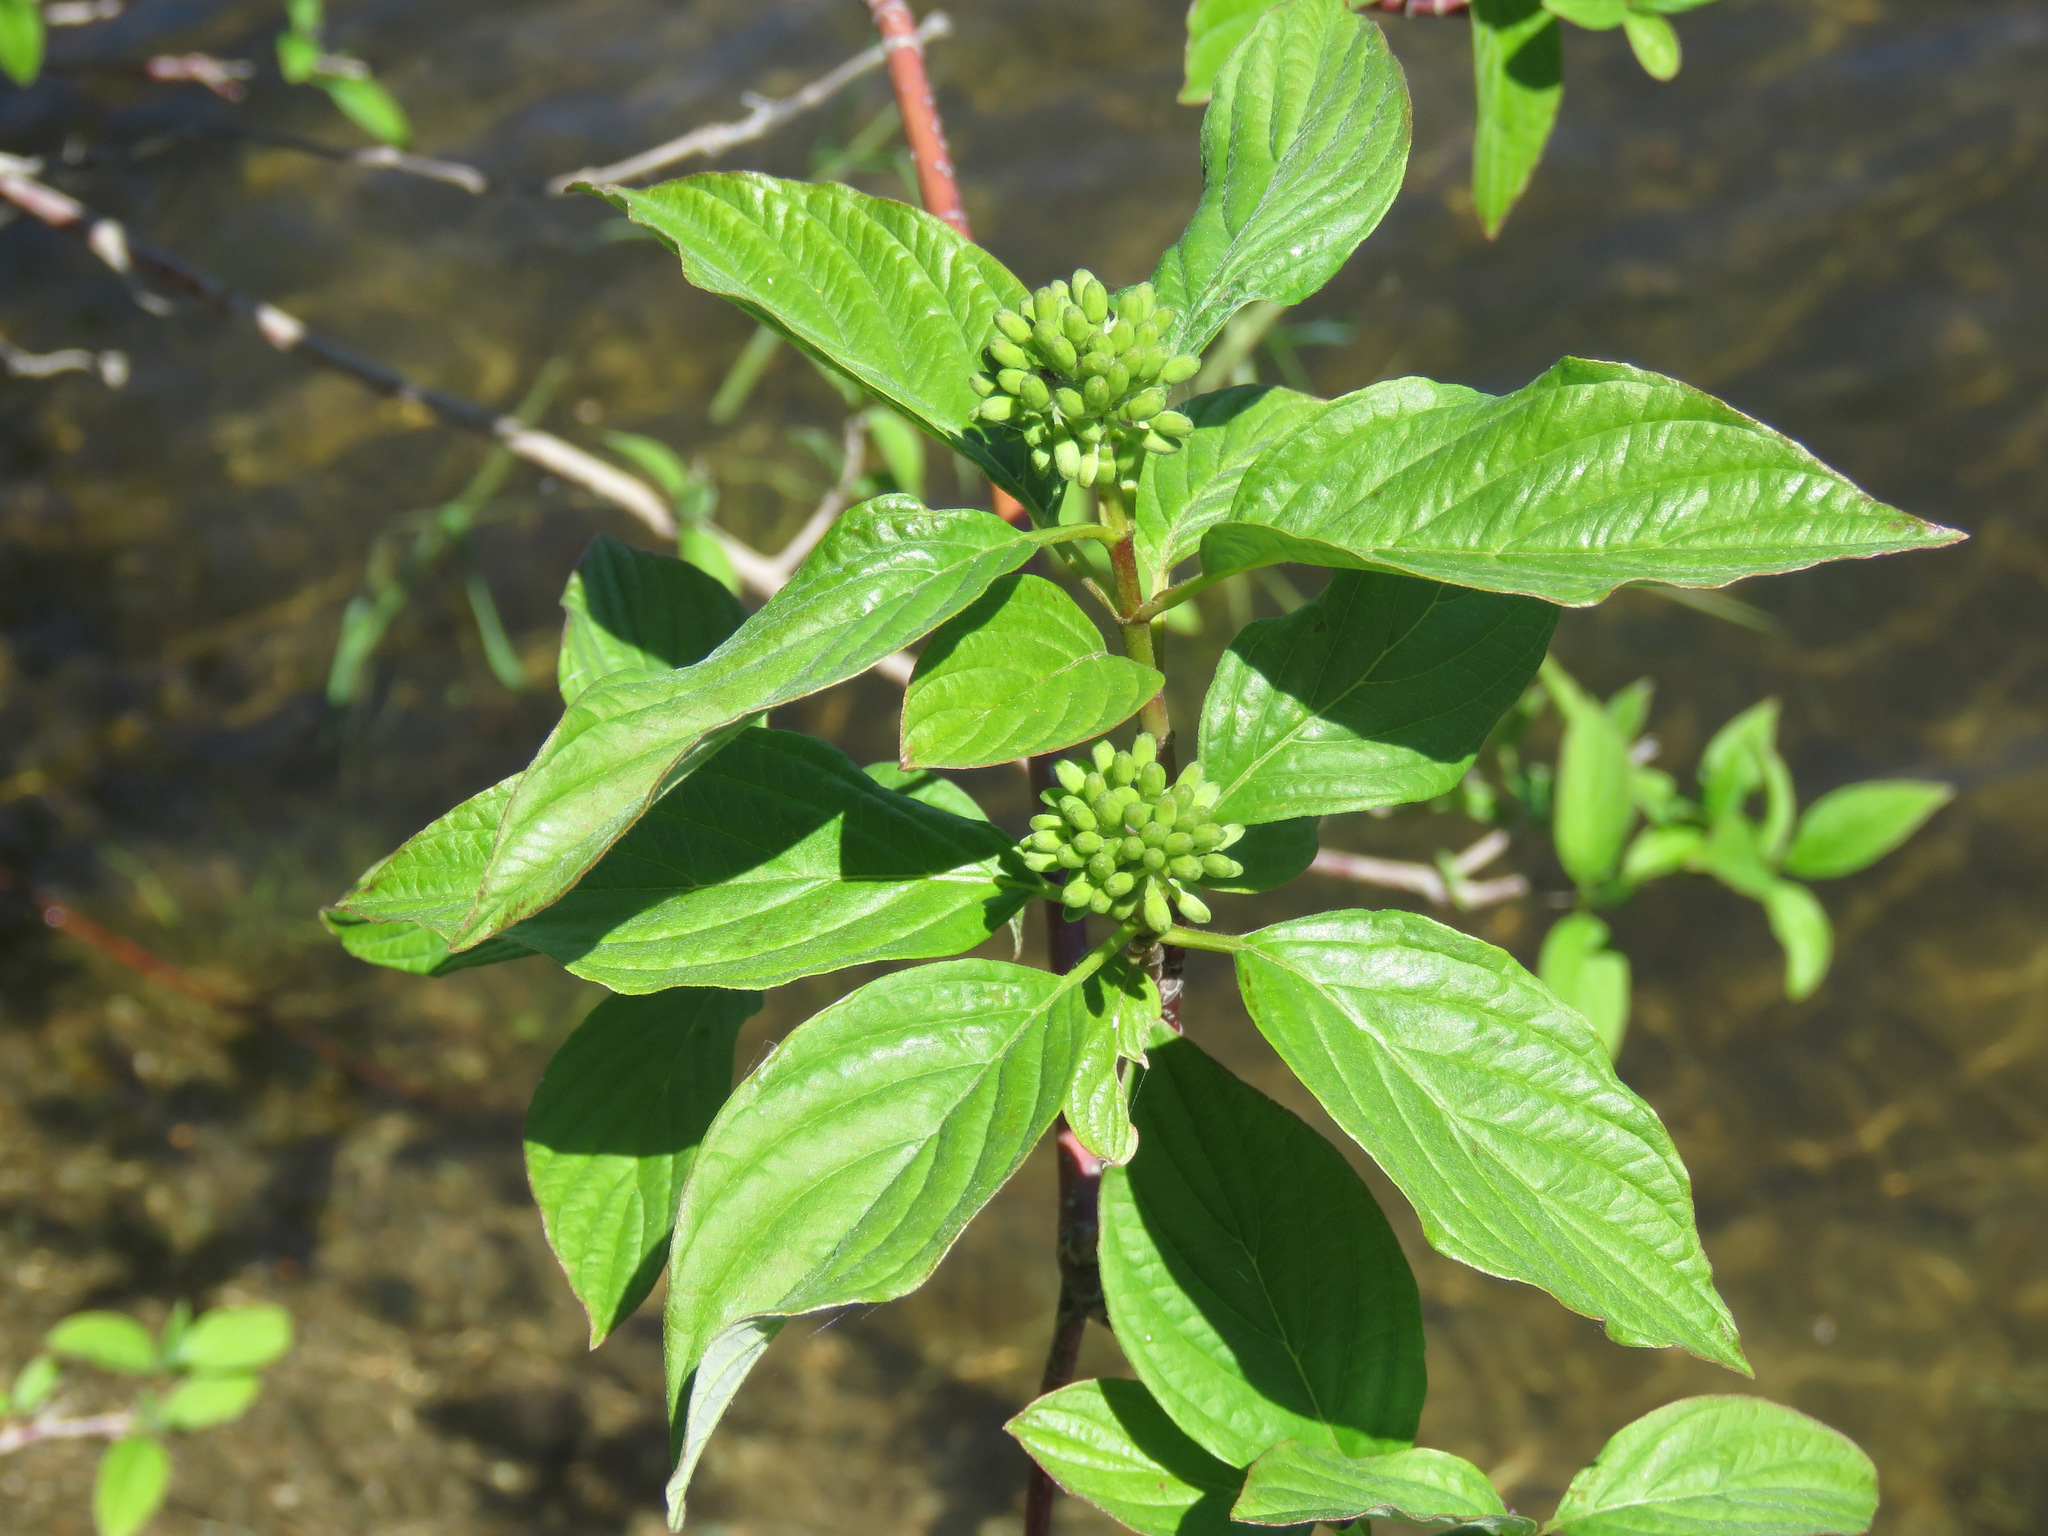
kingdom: Plantae
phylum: Tracheophyta
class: Magnoliopsida
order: Cornales
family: Cornaceae
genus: Cornus
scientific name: Cornus sericea
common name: Red-osier dogwood
